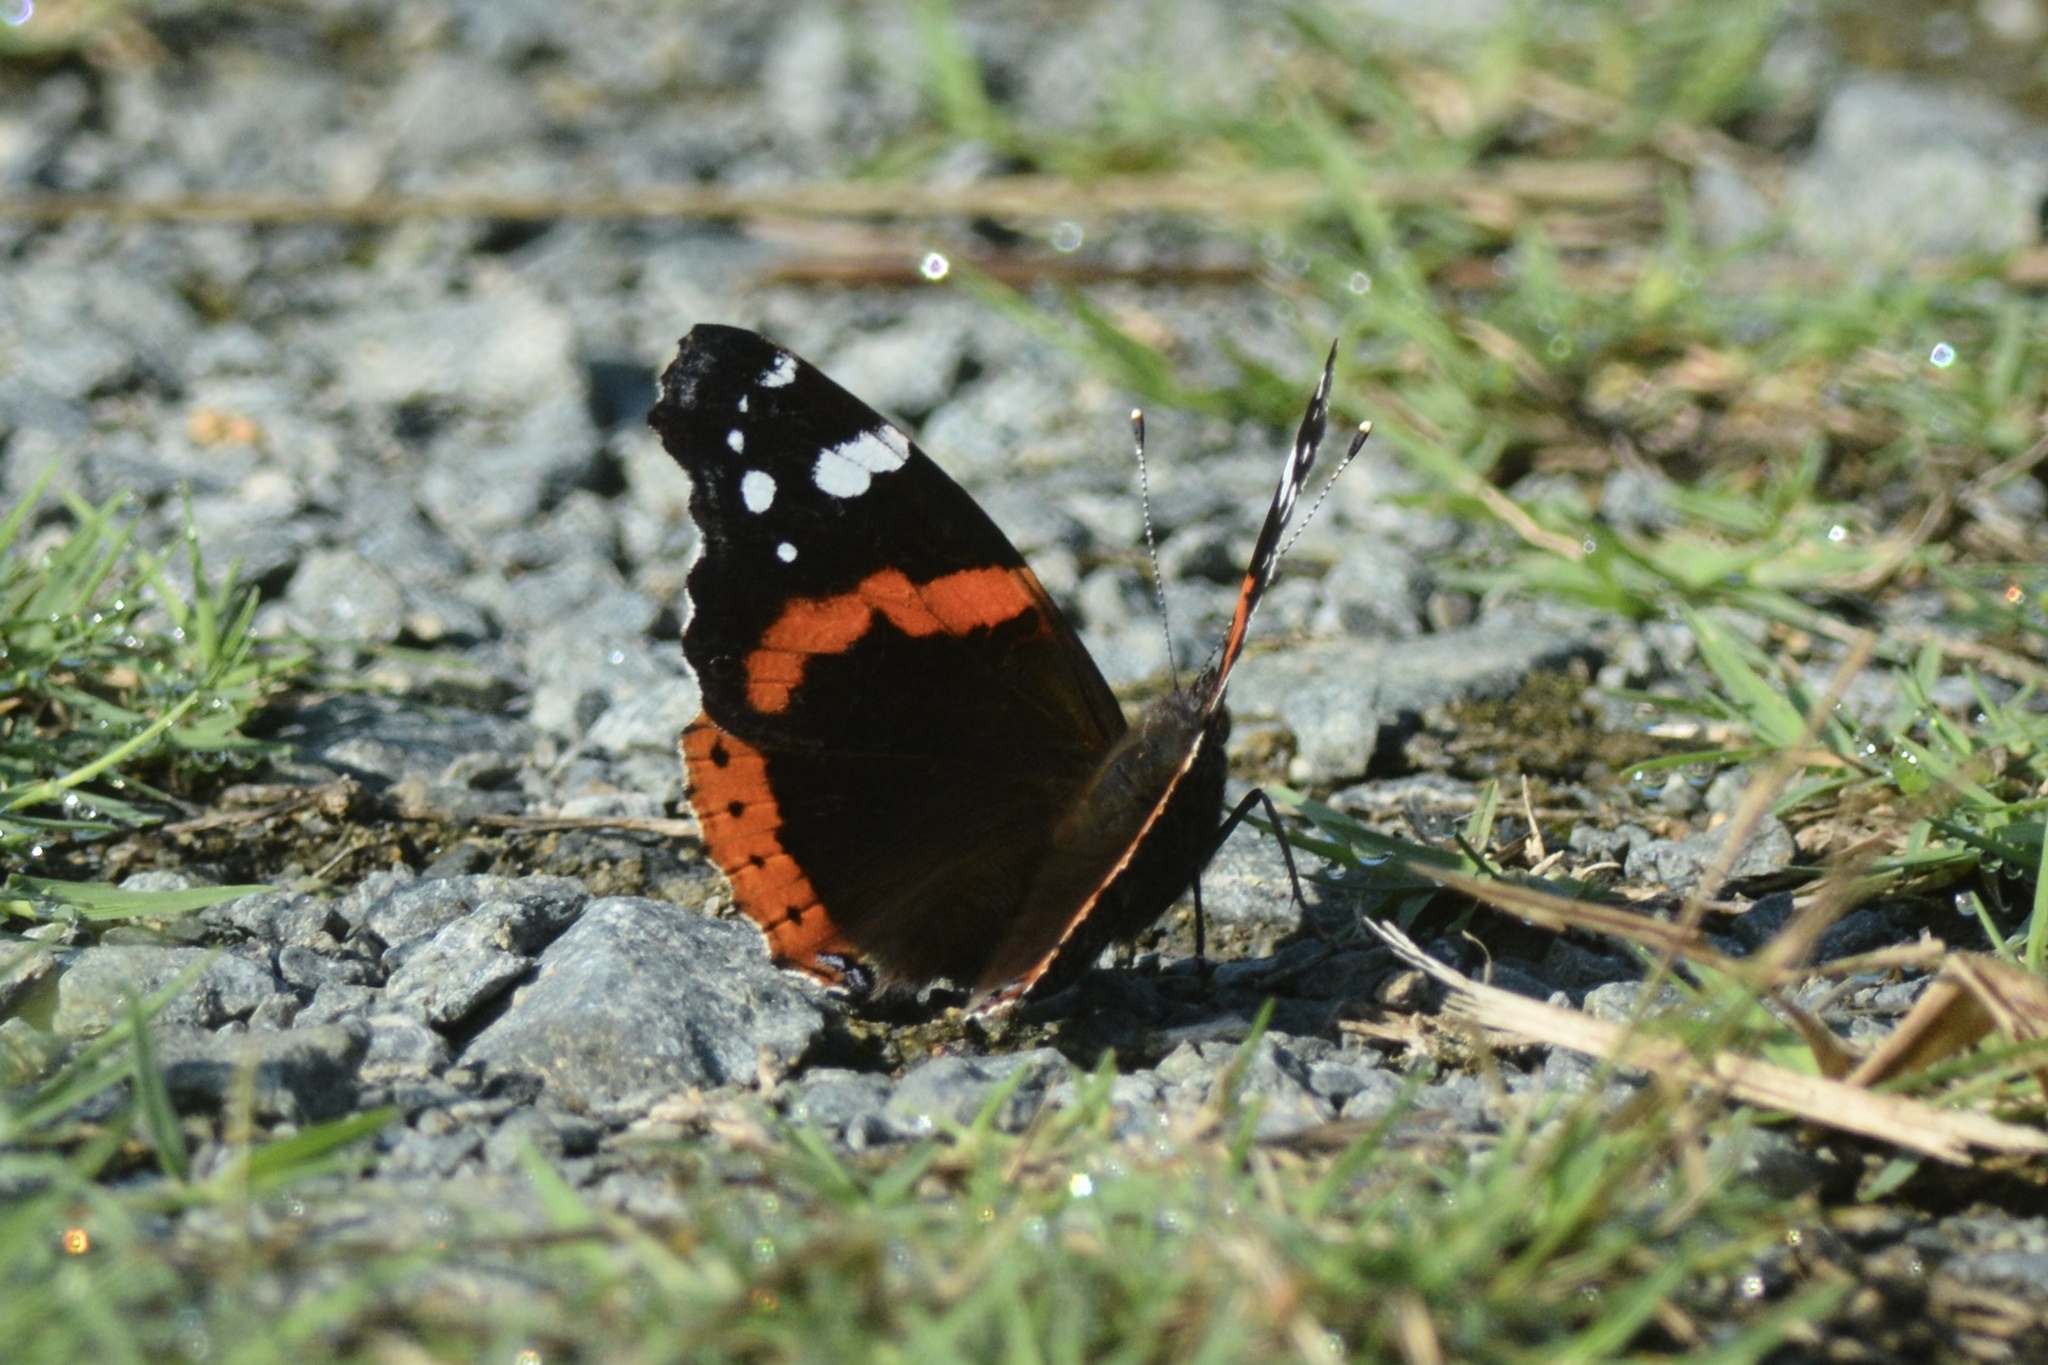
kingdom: Animalia
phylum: Arthropoda
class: Insecta
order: Lepidoptera
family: Nymphalidae
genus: Vanessa
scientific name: Vanessa atalanta
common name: Red admiral
